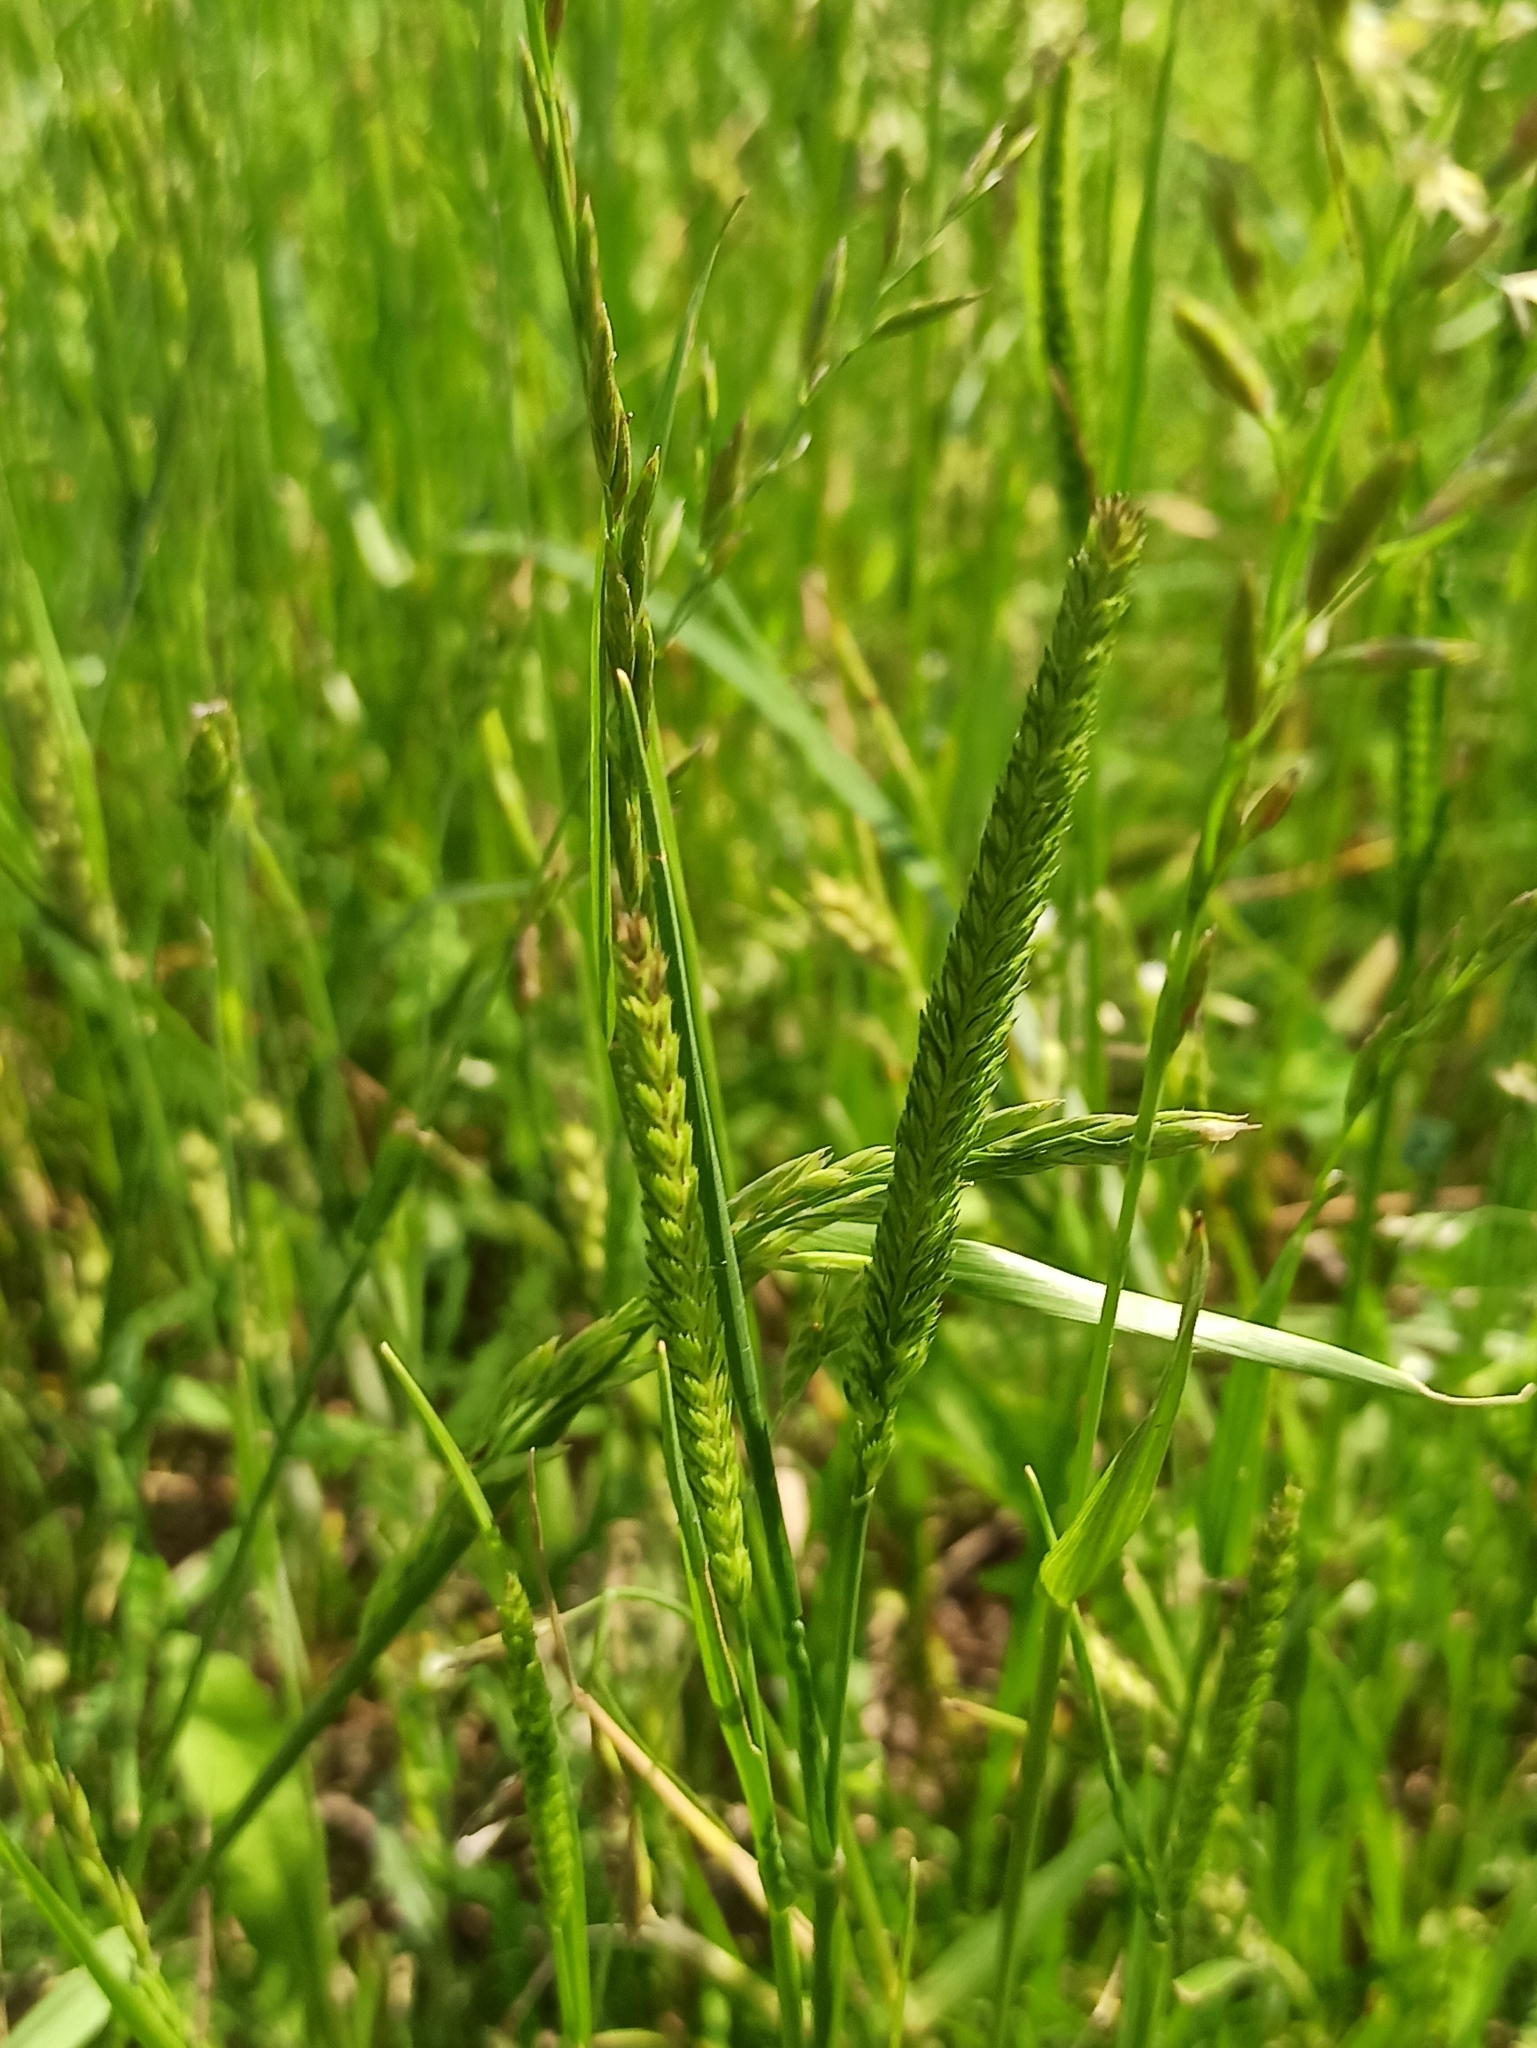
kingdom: Plantae
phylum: Tracheophyta
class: Liliopsida
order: Poales
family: Poaceae
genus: Cynosurus
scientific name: Cynosurus cristatus
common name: Crested dog's-tail
